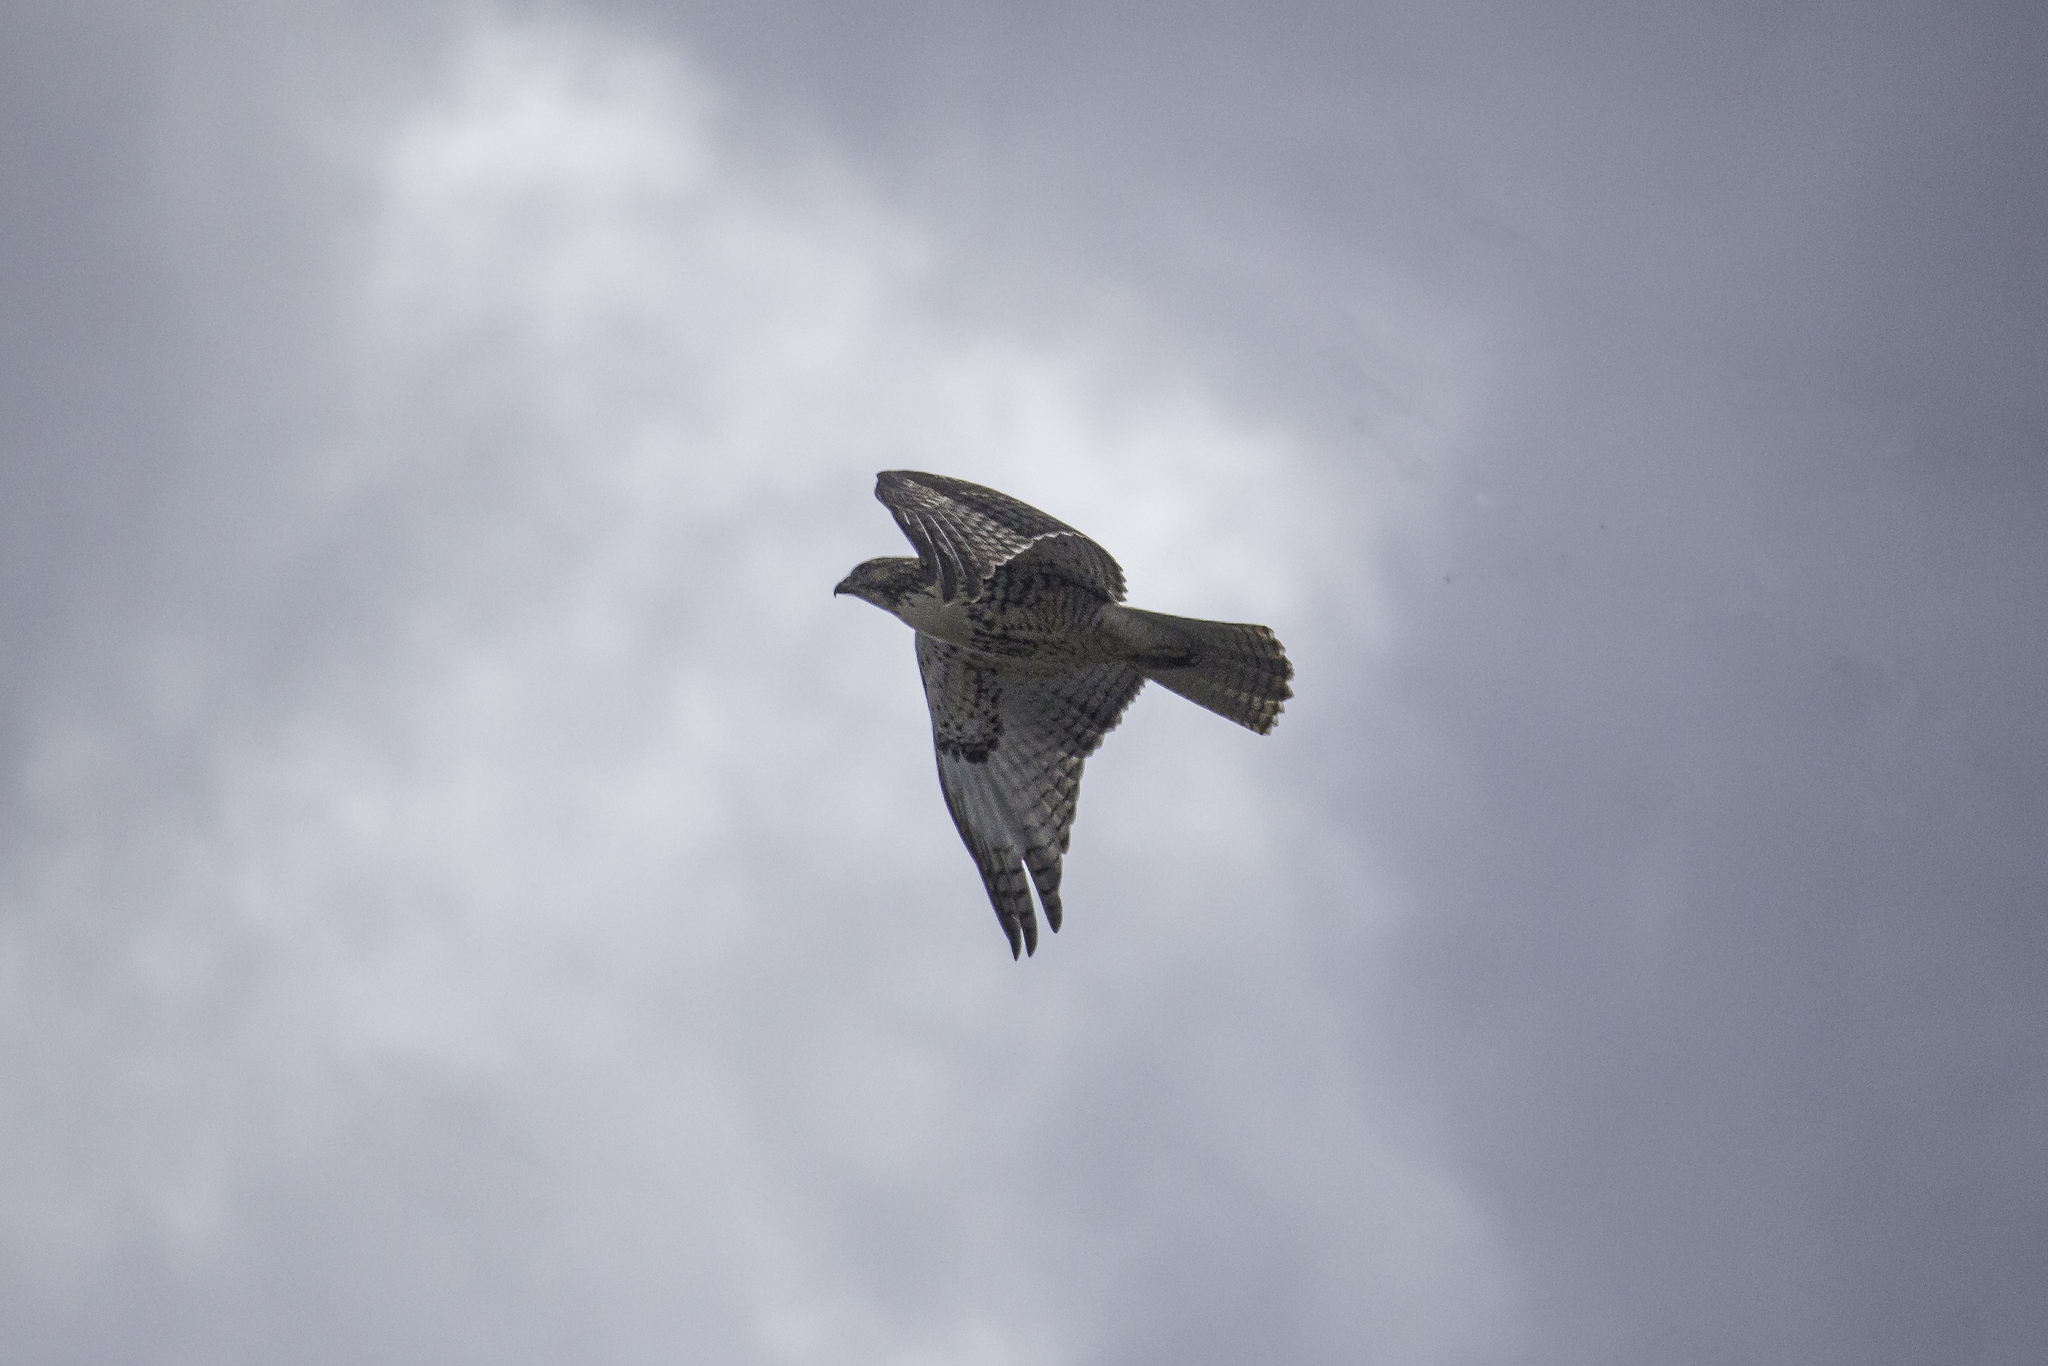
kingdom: Animalia
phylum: Chordata
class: Aves
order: Accipitriformes
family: Accipitridae
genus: Buteo
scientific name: Buteo jamaicensis
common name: Red-tailed hawk
